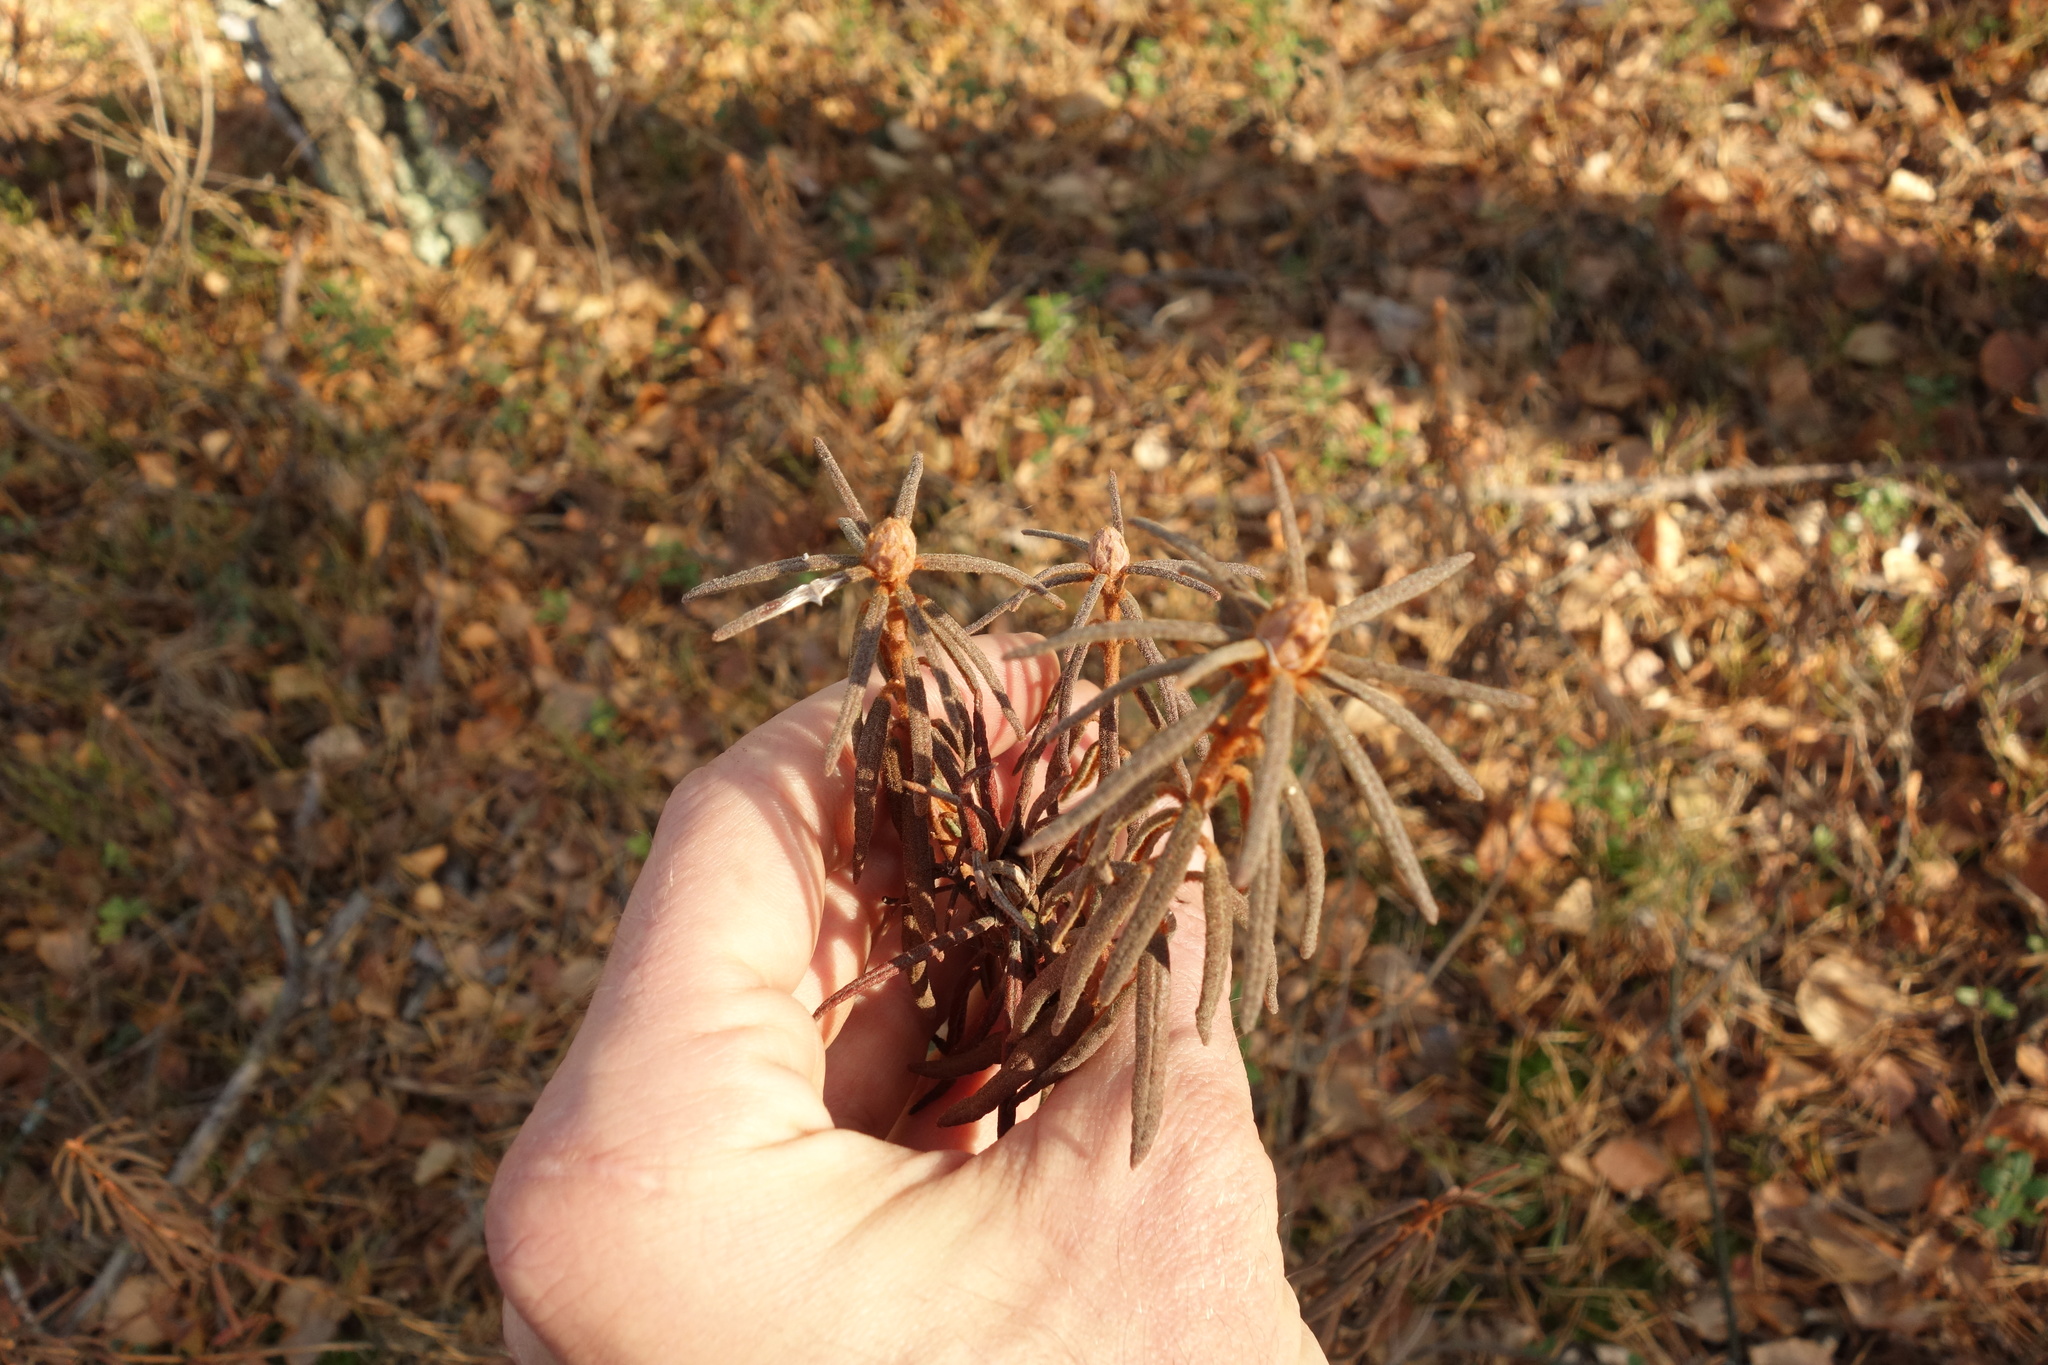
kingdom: Plantae
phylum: Tracheophyta
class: Magnoliopsida
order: Ericales
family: Ericaceae
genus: Rhododendron
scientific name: Rhododendron tomentosum
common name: Marsh labrador tea
